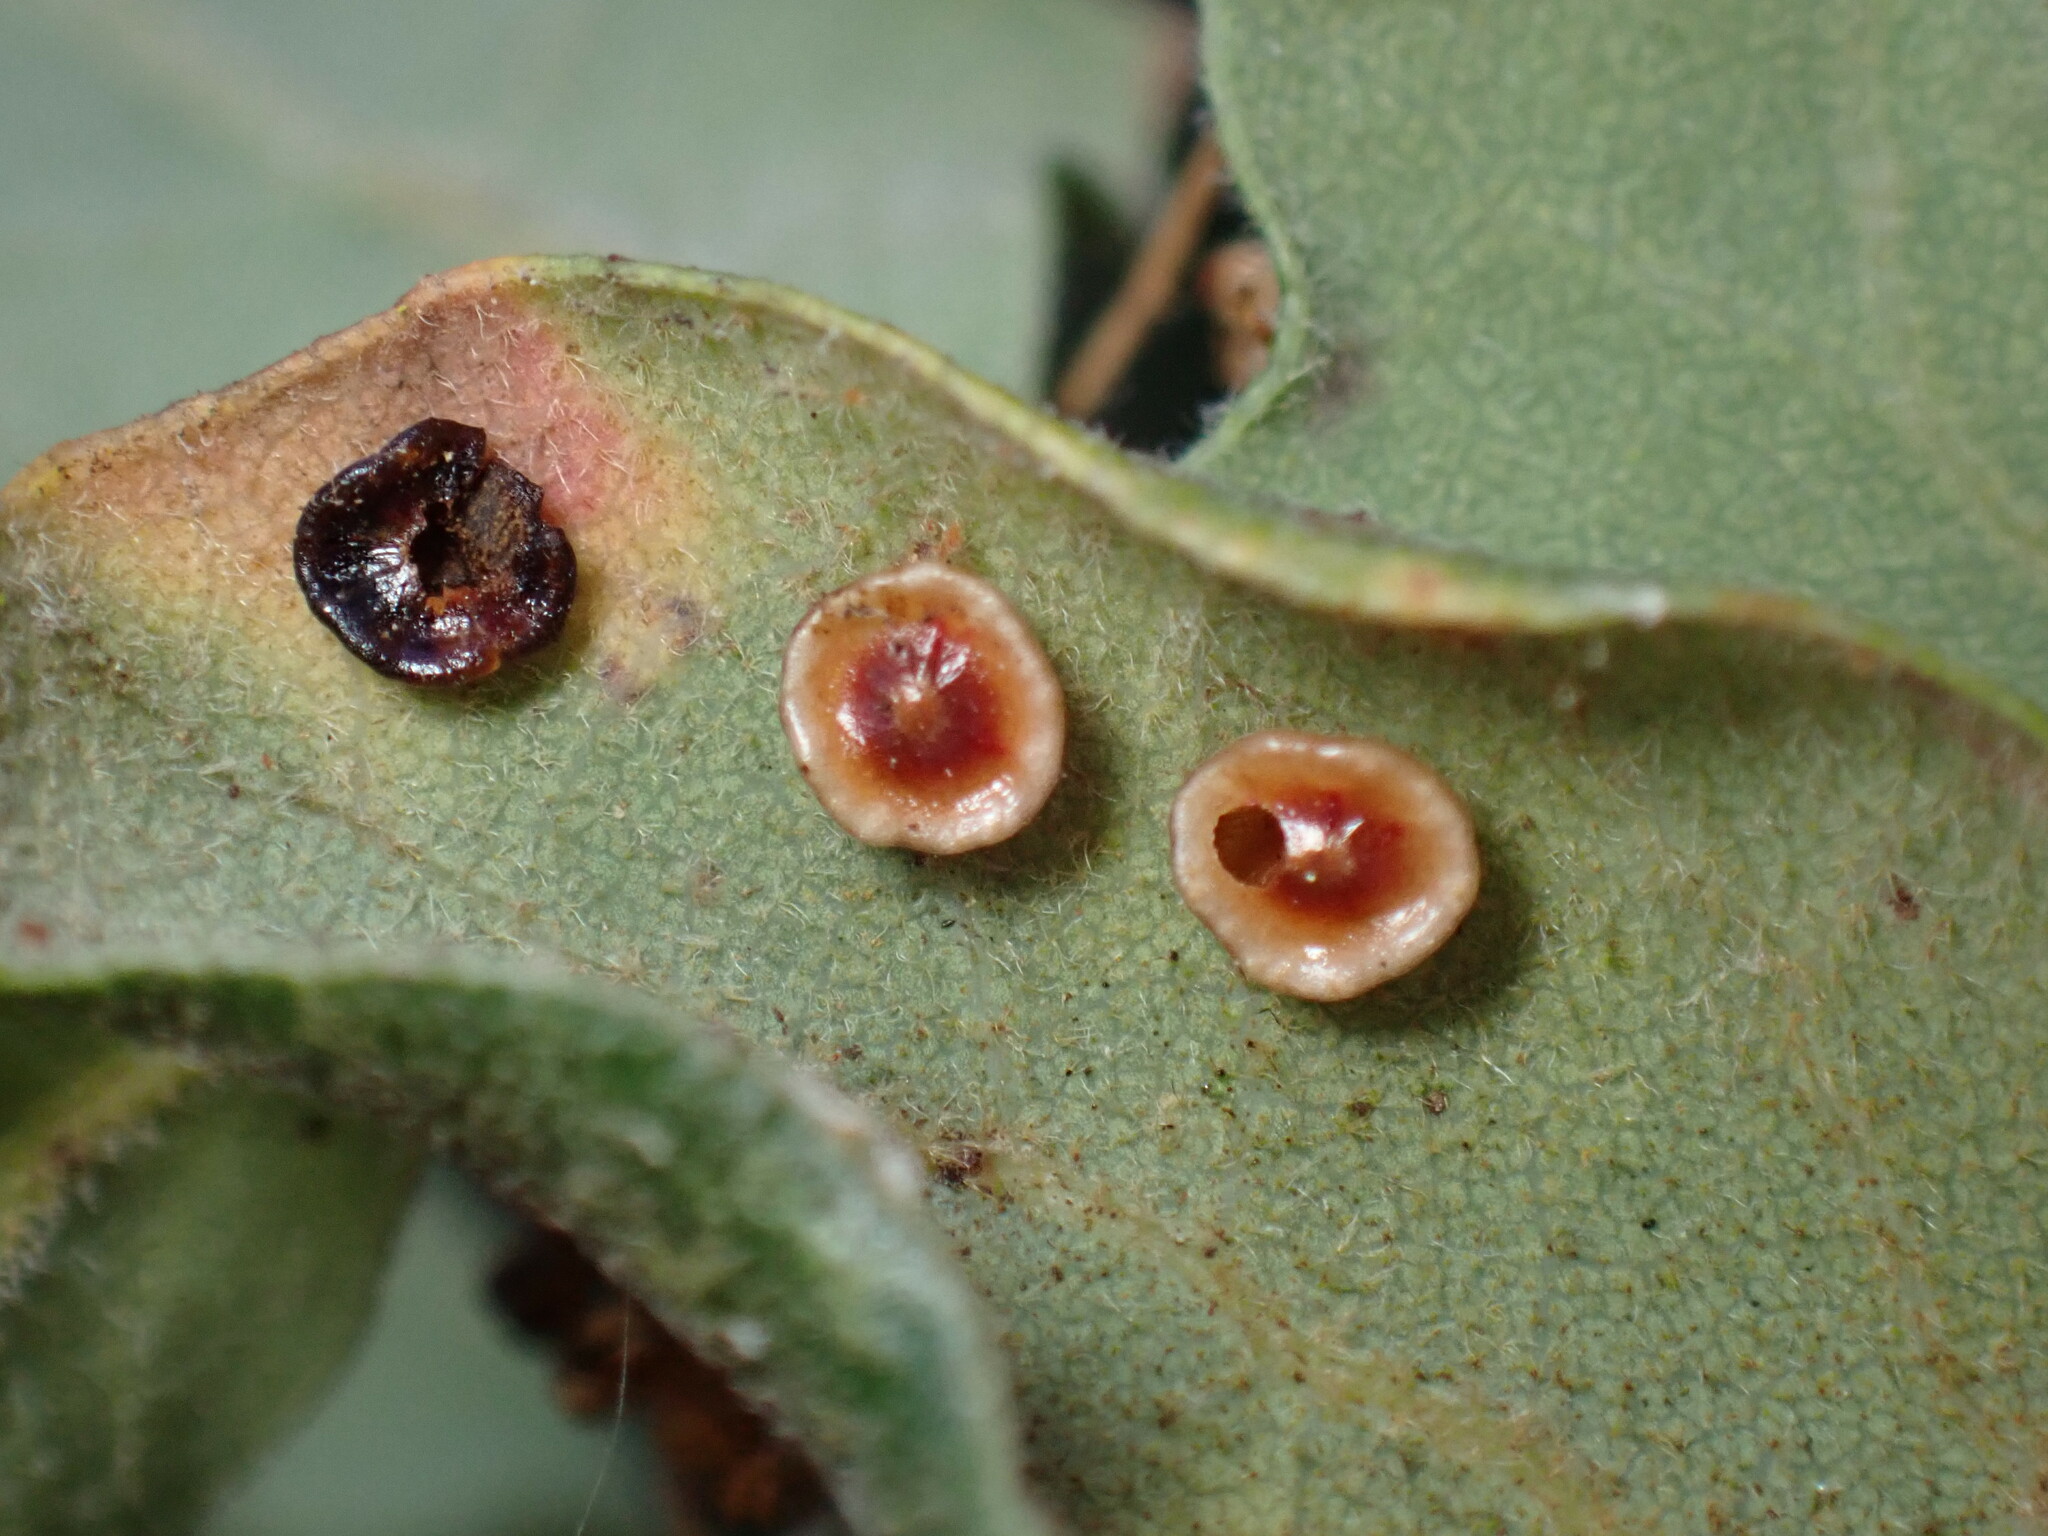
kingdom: Animalia
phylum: Arthropoda
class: Insecta
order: Hymenoptera
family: Cynipidae
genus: Andricus
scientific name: Andricus
